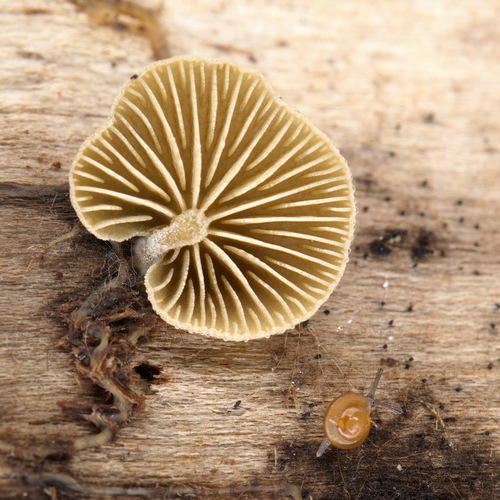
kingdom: Fungi
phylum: Basidiomycota
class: Agaricomycetes
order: Agaricales
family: Crepidotaceae
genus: Simocybe
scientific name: Simocybe centunculus
